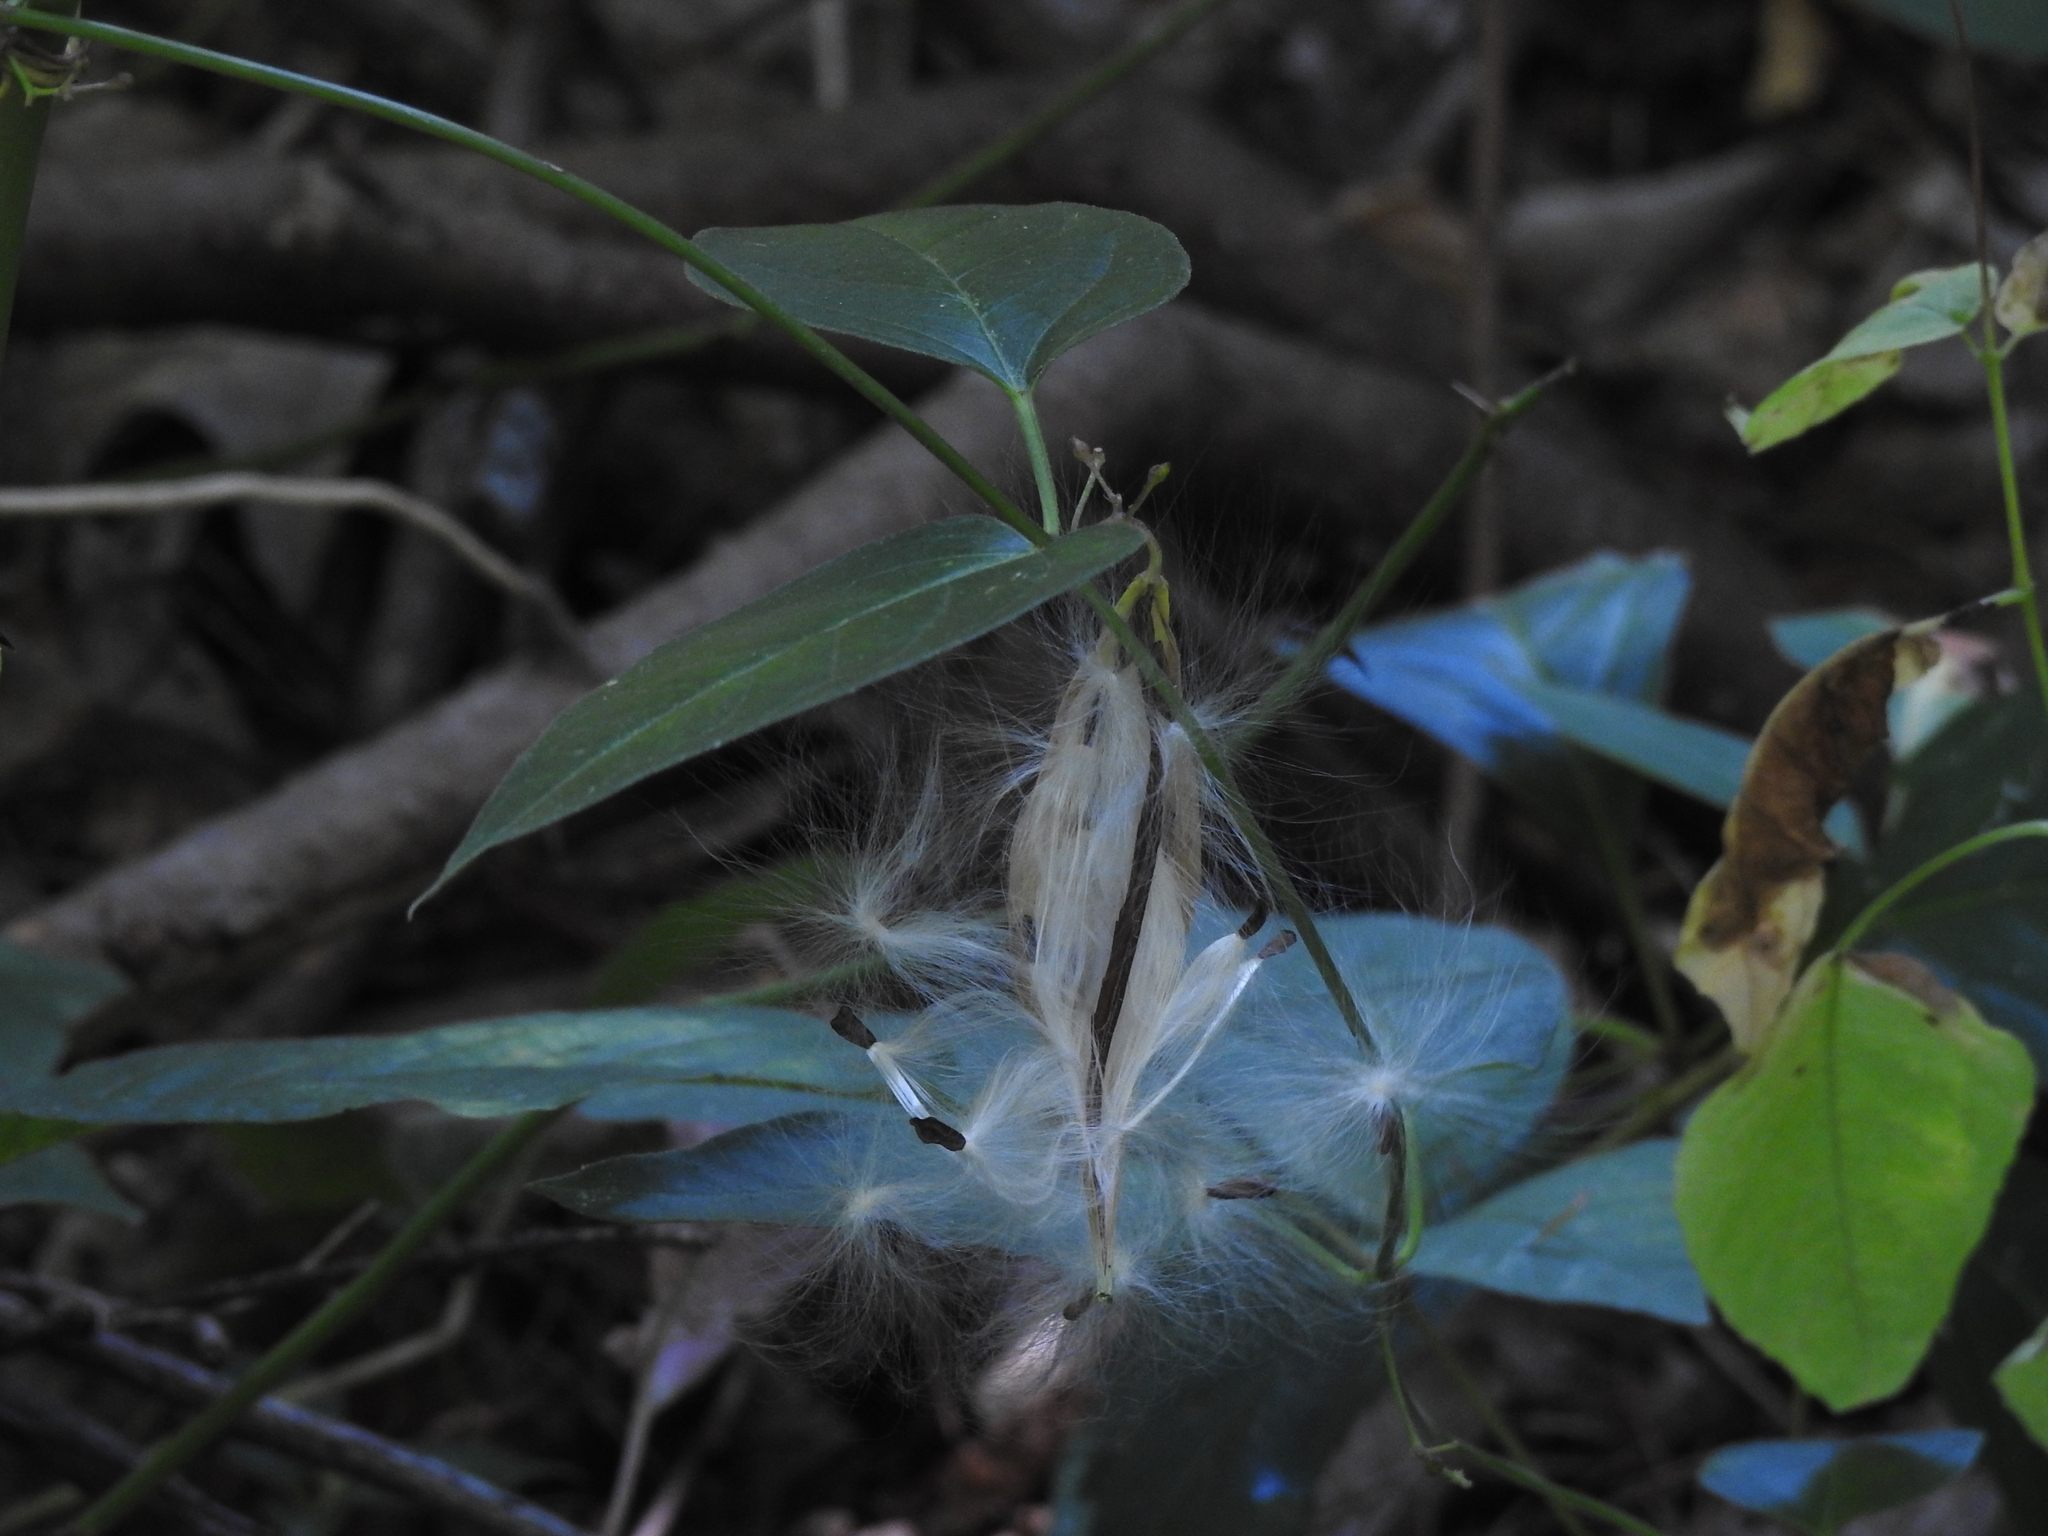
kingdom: Plantae
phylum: Tracheophyta
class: Magnoliopsida
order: Gentianales
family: Apocynaceae
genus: Vincetoxicum
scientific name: Vincetoxicum nigrum
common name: Black swallow-wort
